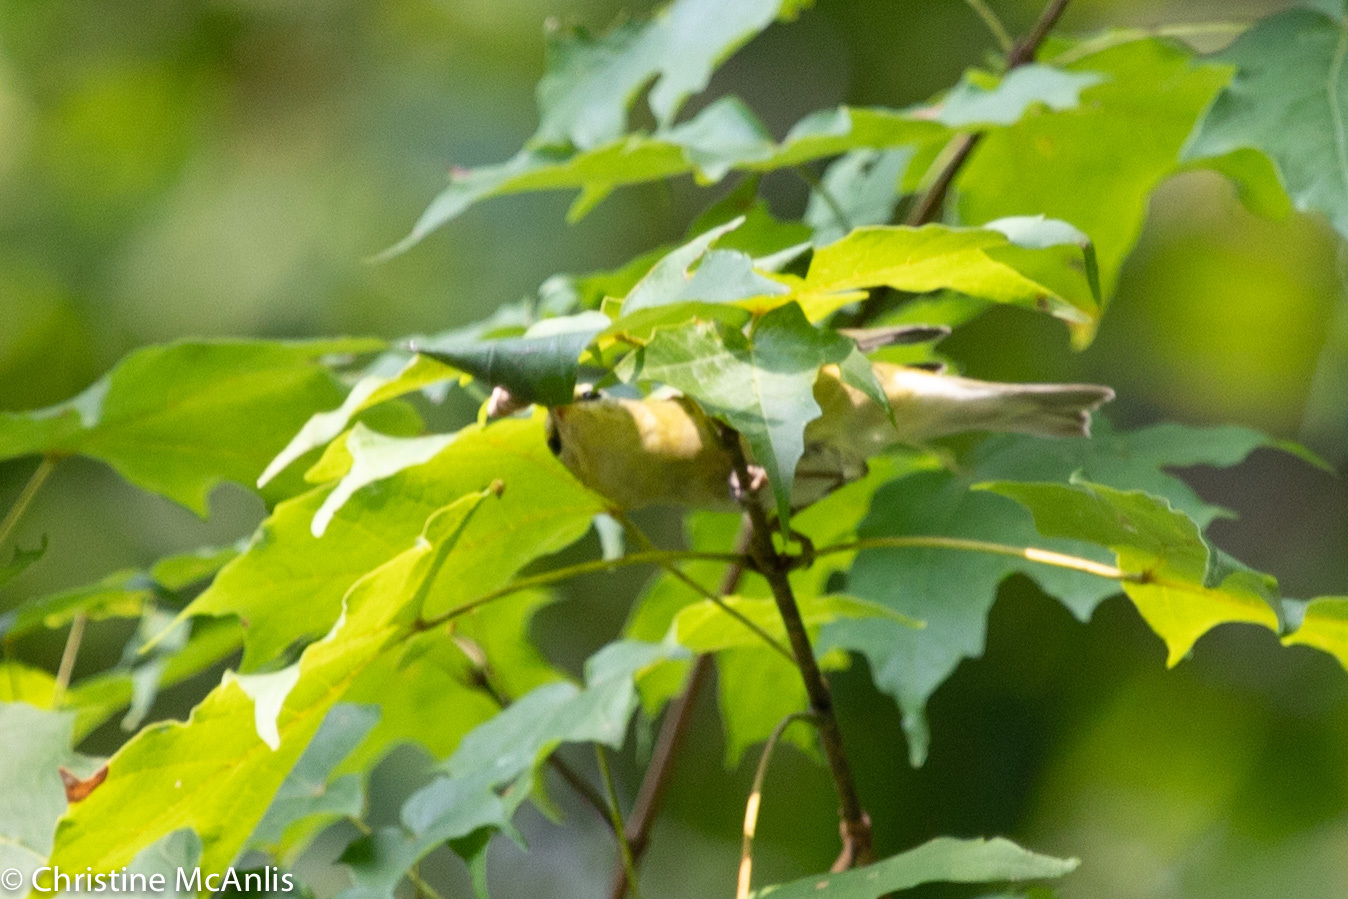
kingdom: Animalia
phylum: Chordata
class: Aves
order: Passeriformes
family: Parulidae
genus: Leiothlypis
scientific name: Leiothlypis peregrina
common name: Tennessee warbler
